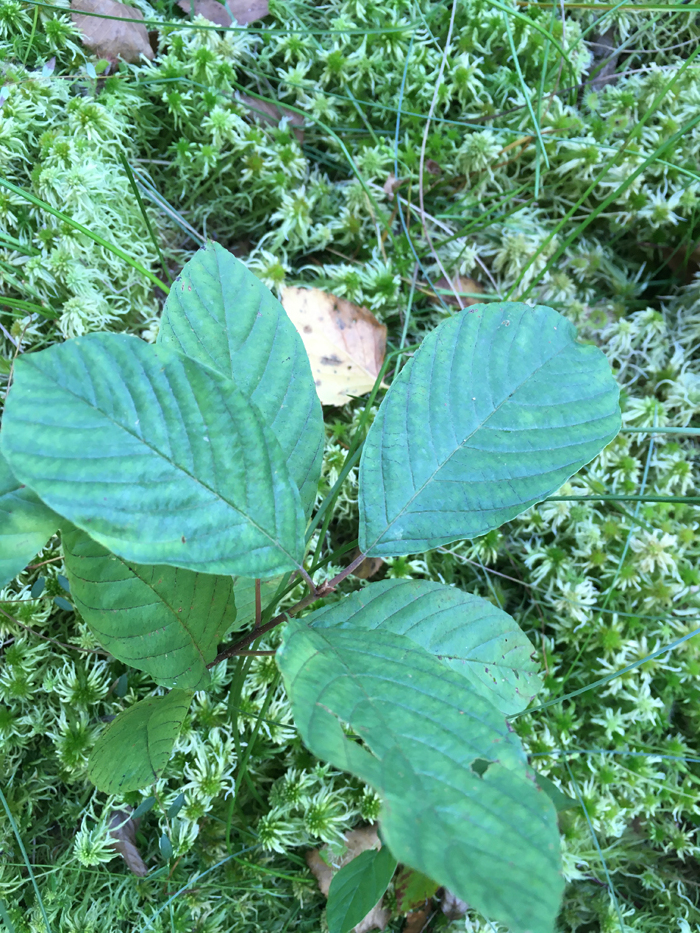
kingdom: Plantae
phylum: Tracheophyta
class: Magnoliopsida
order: Rosales
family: Rhamnaceae
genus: Frangula
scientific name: Frangula alnus
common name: Alder buckthorn
